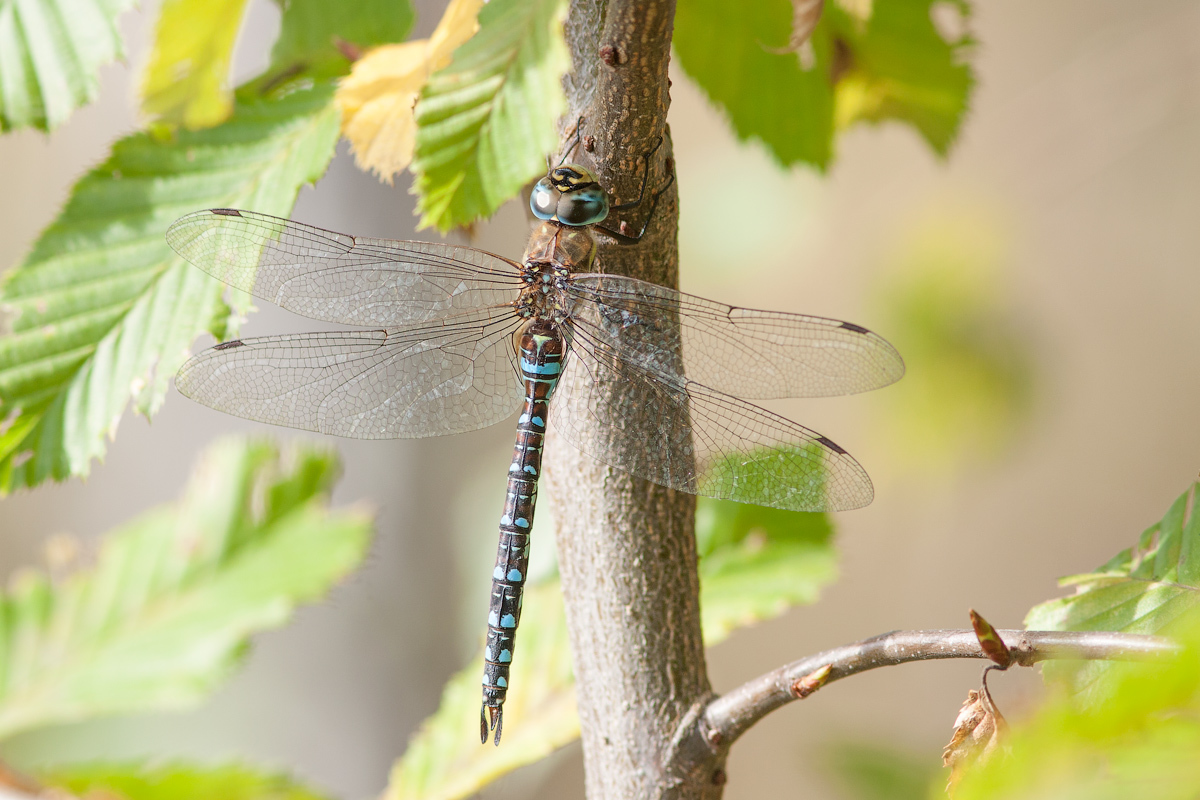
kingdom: Animalia
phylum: Arthropoda
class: Insecta
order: Odonata
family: Aeshnidae
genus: Aeshna
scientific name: Aeshna mixta
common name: Migrant hawker
